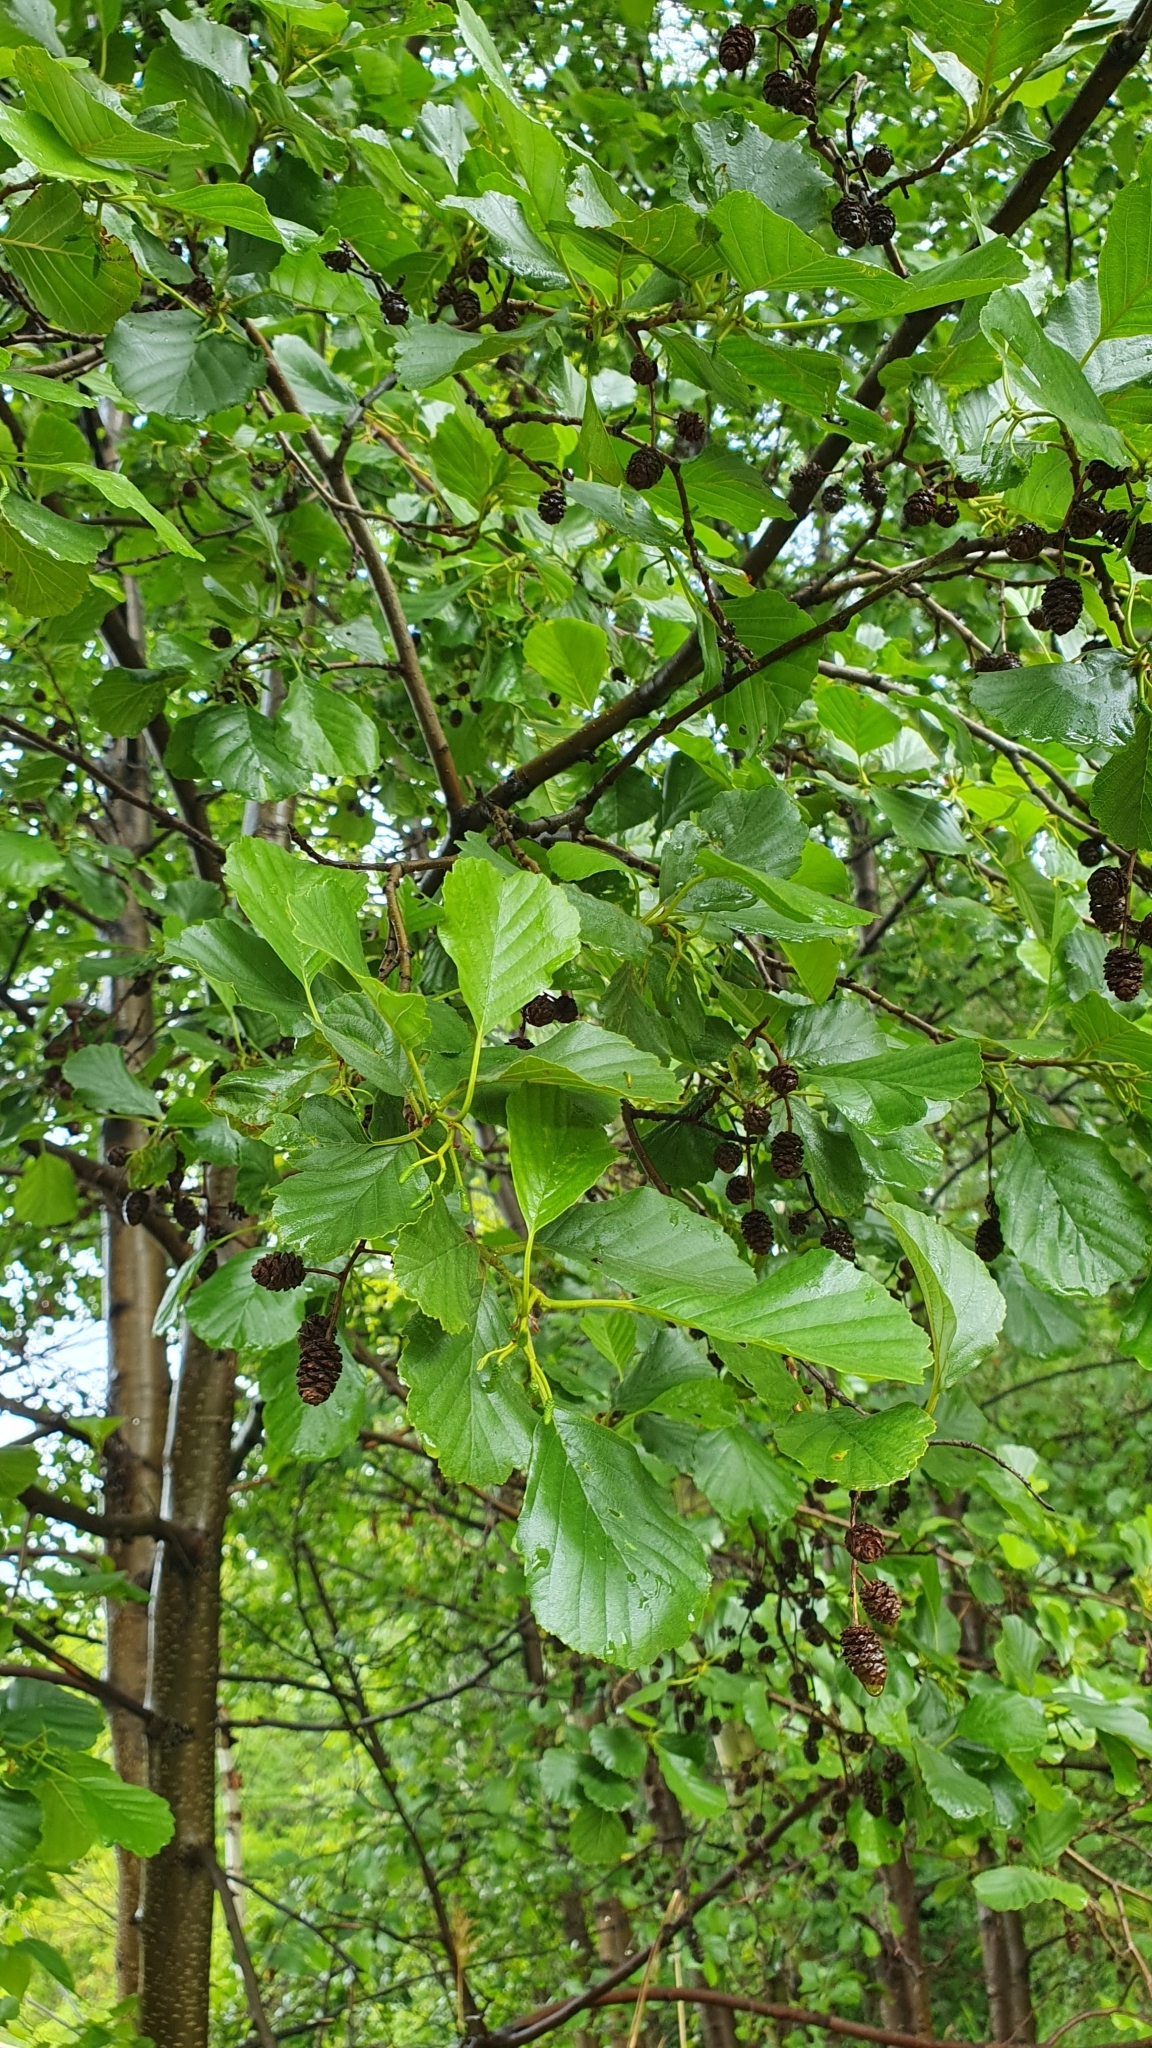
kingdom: Plantae
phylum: Tracheophyta
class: Magnoliopsida
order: Fagales
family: Betulaceae
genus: Alnus
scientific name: Alnus glutinosa
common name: Black alder
